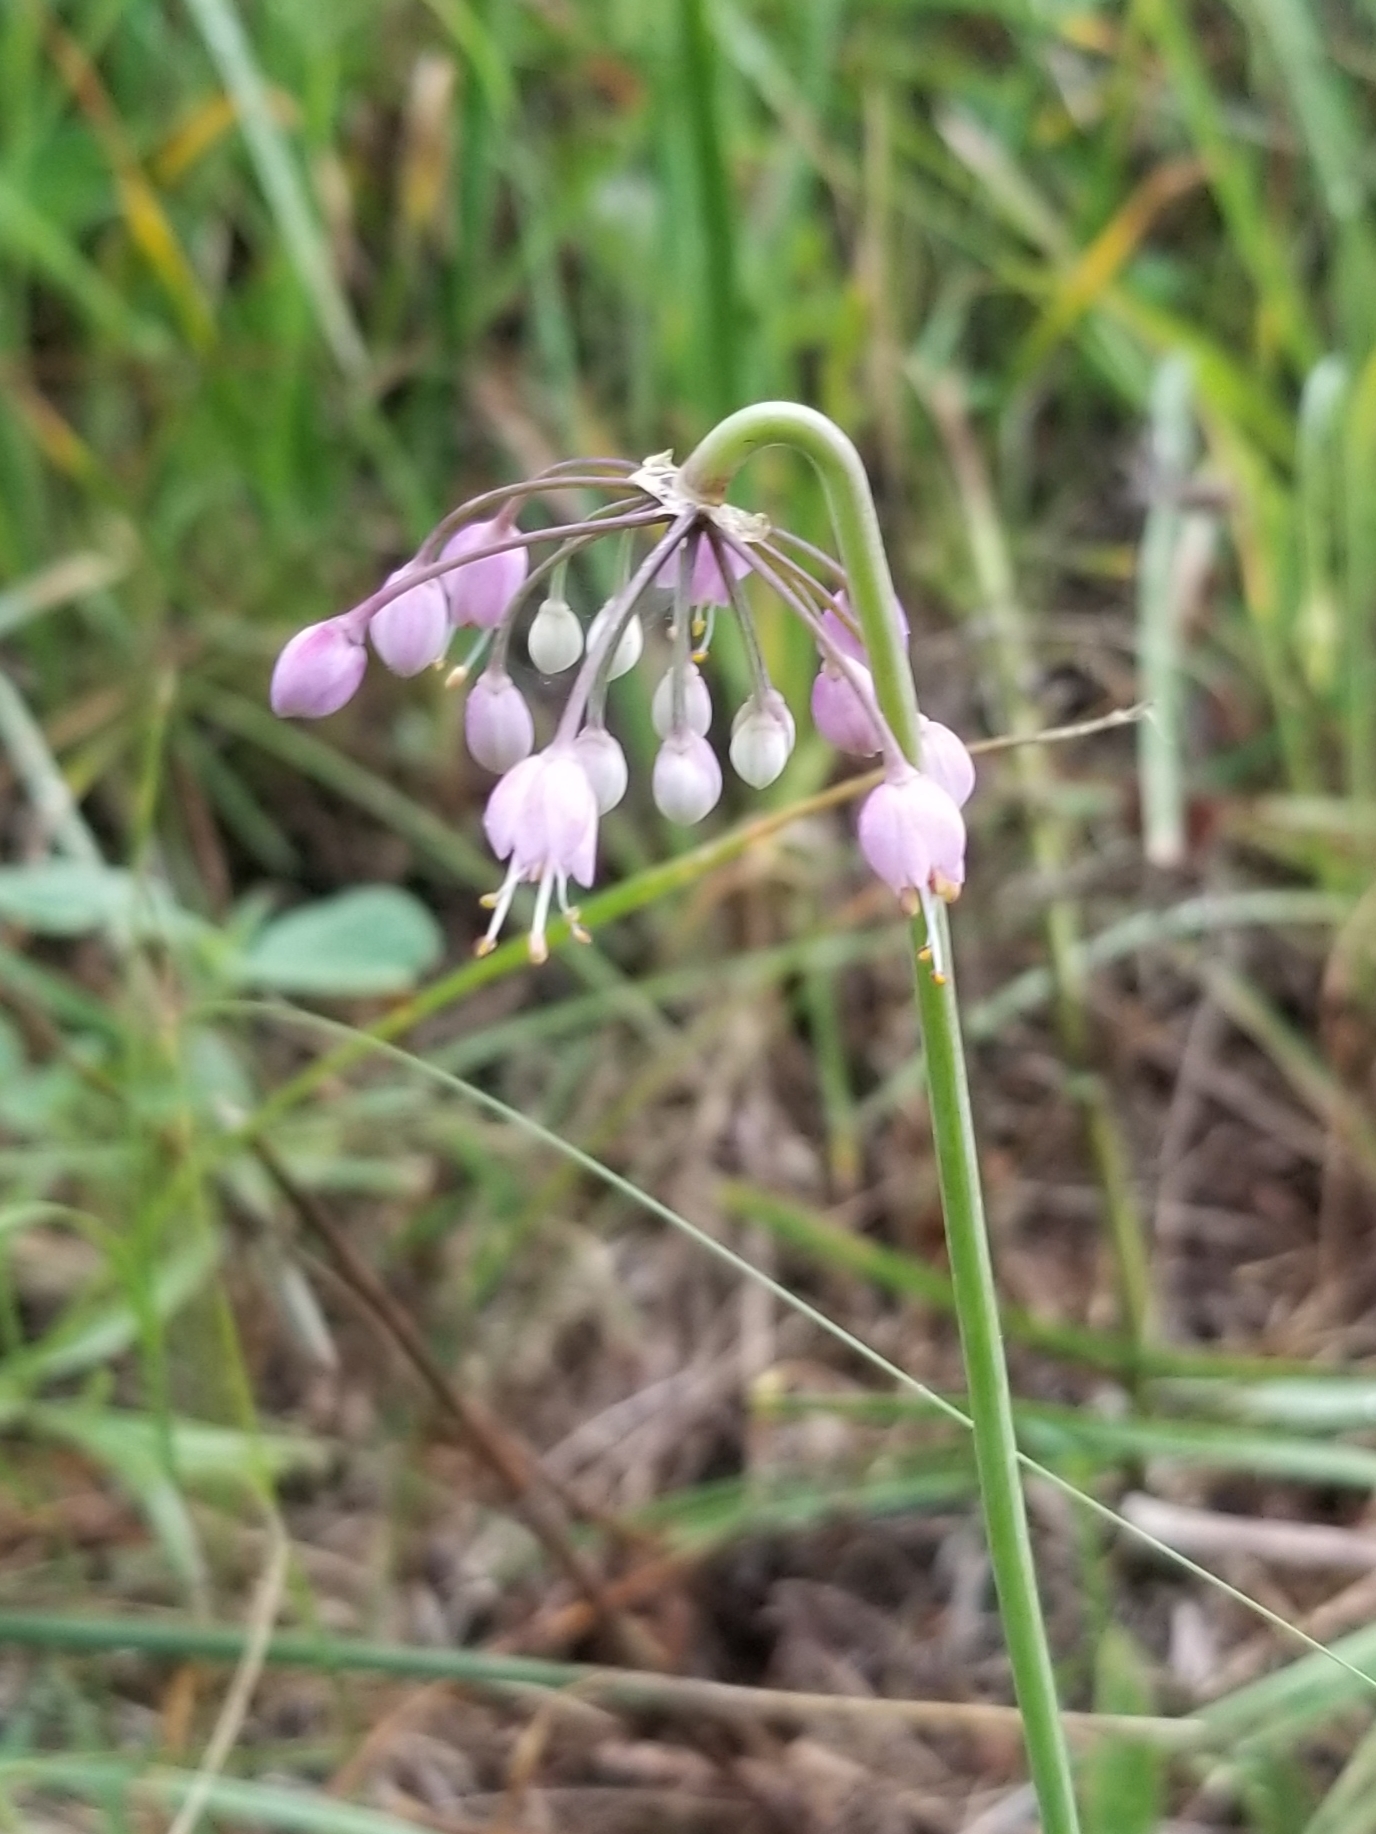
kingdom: Plantae
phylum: Tracheophyta
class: Liliopsida
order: Asparagales
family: Amaryllidaceae
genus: Allium
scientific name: Allium cernuum
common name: Nodding onion
